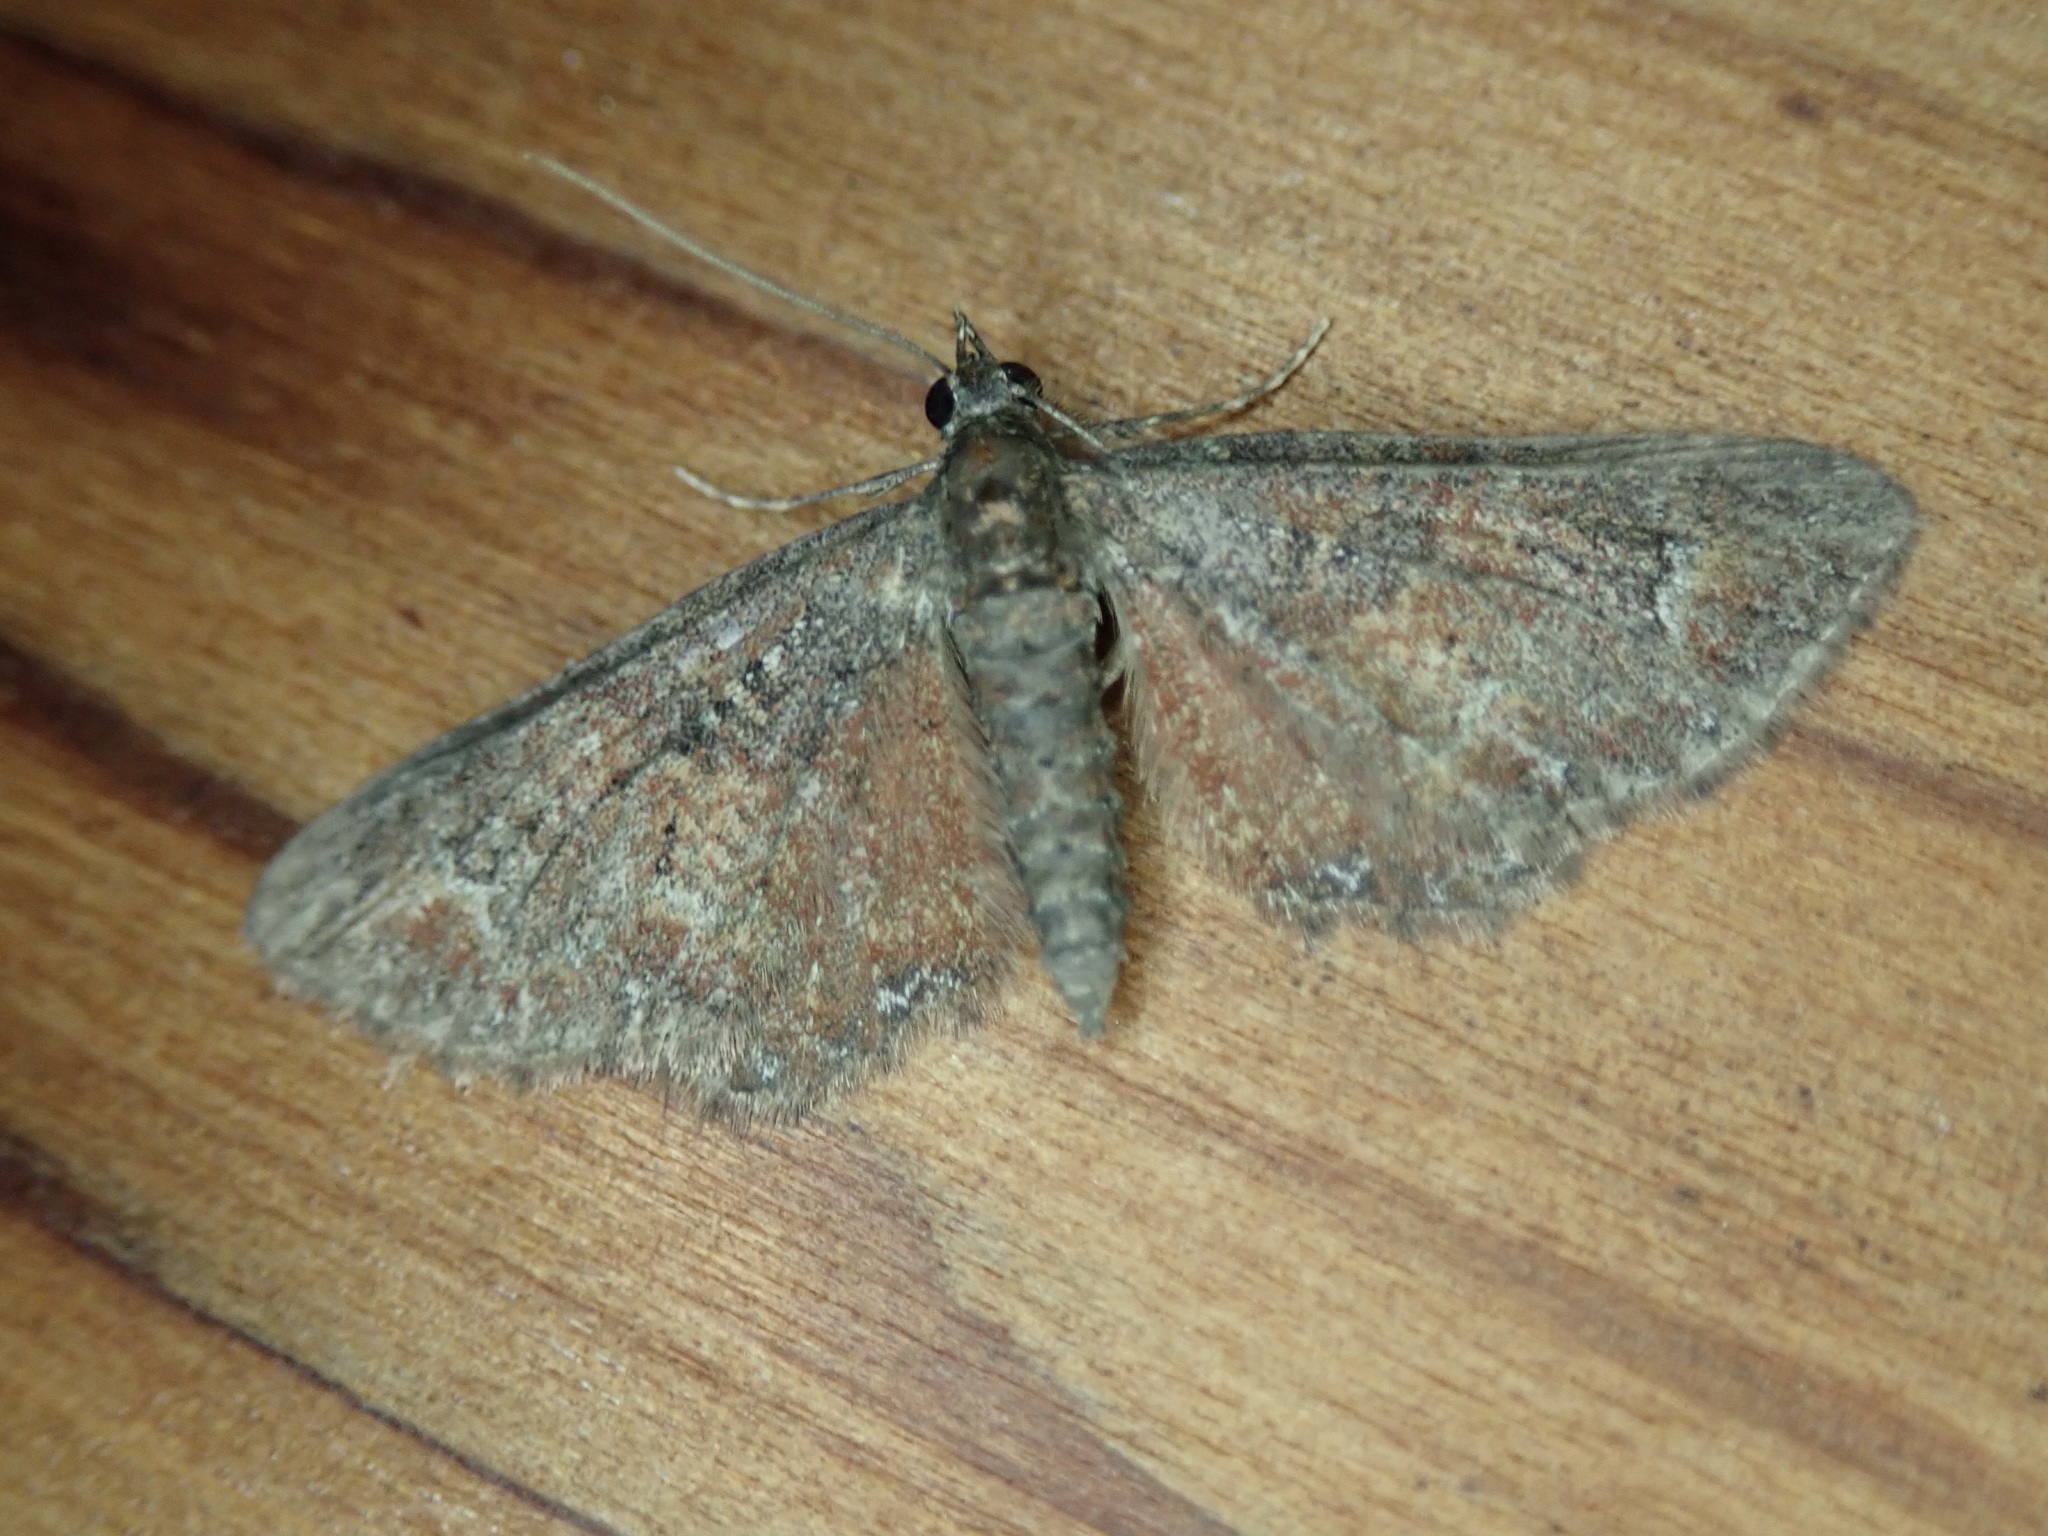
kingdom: Animalia
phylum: Arthropoda
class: Insecta
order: Lepidoptera
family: Geometridae
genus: Pasiphilodes
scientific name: Pasiphilodes testulata
